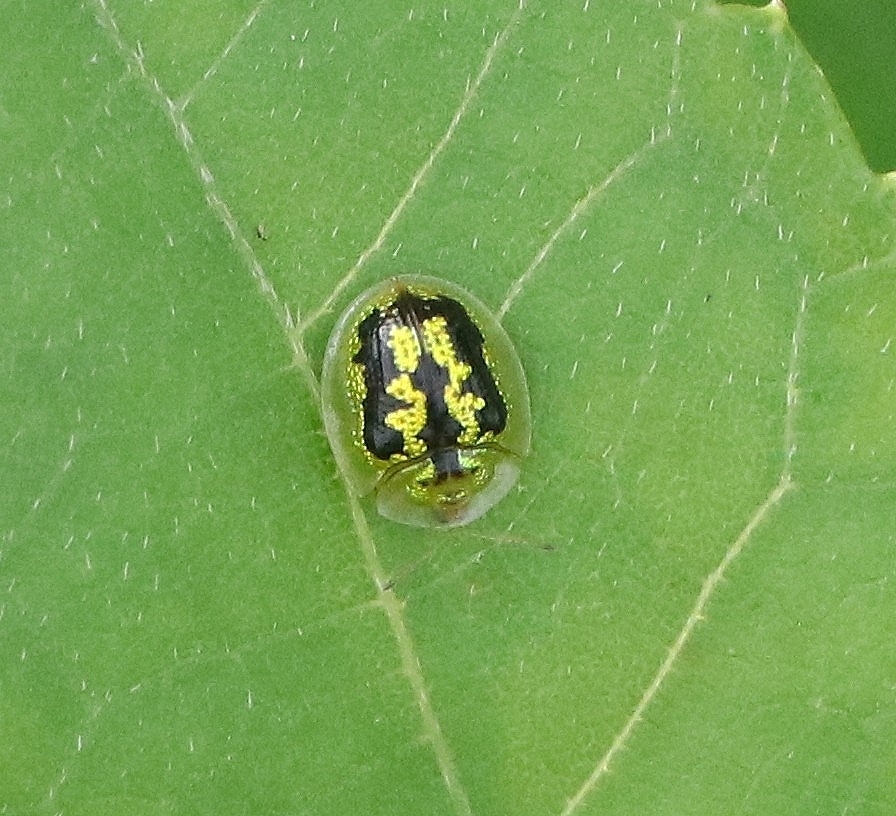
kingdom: Animalia
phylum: Arthropoda
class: Insecta
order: Coleoptera
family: Chrysomelidae
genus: Cassida
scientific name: Cassida circumdata
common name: Tortoise beetle
